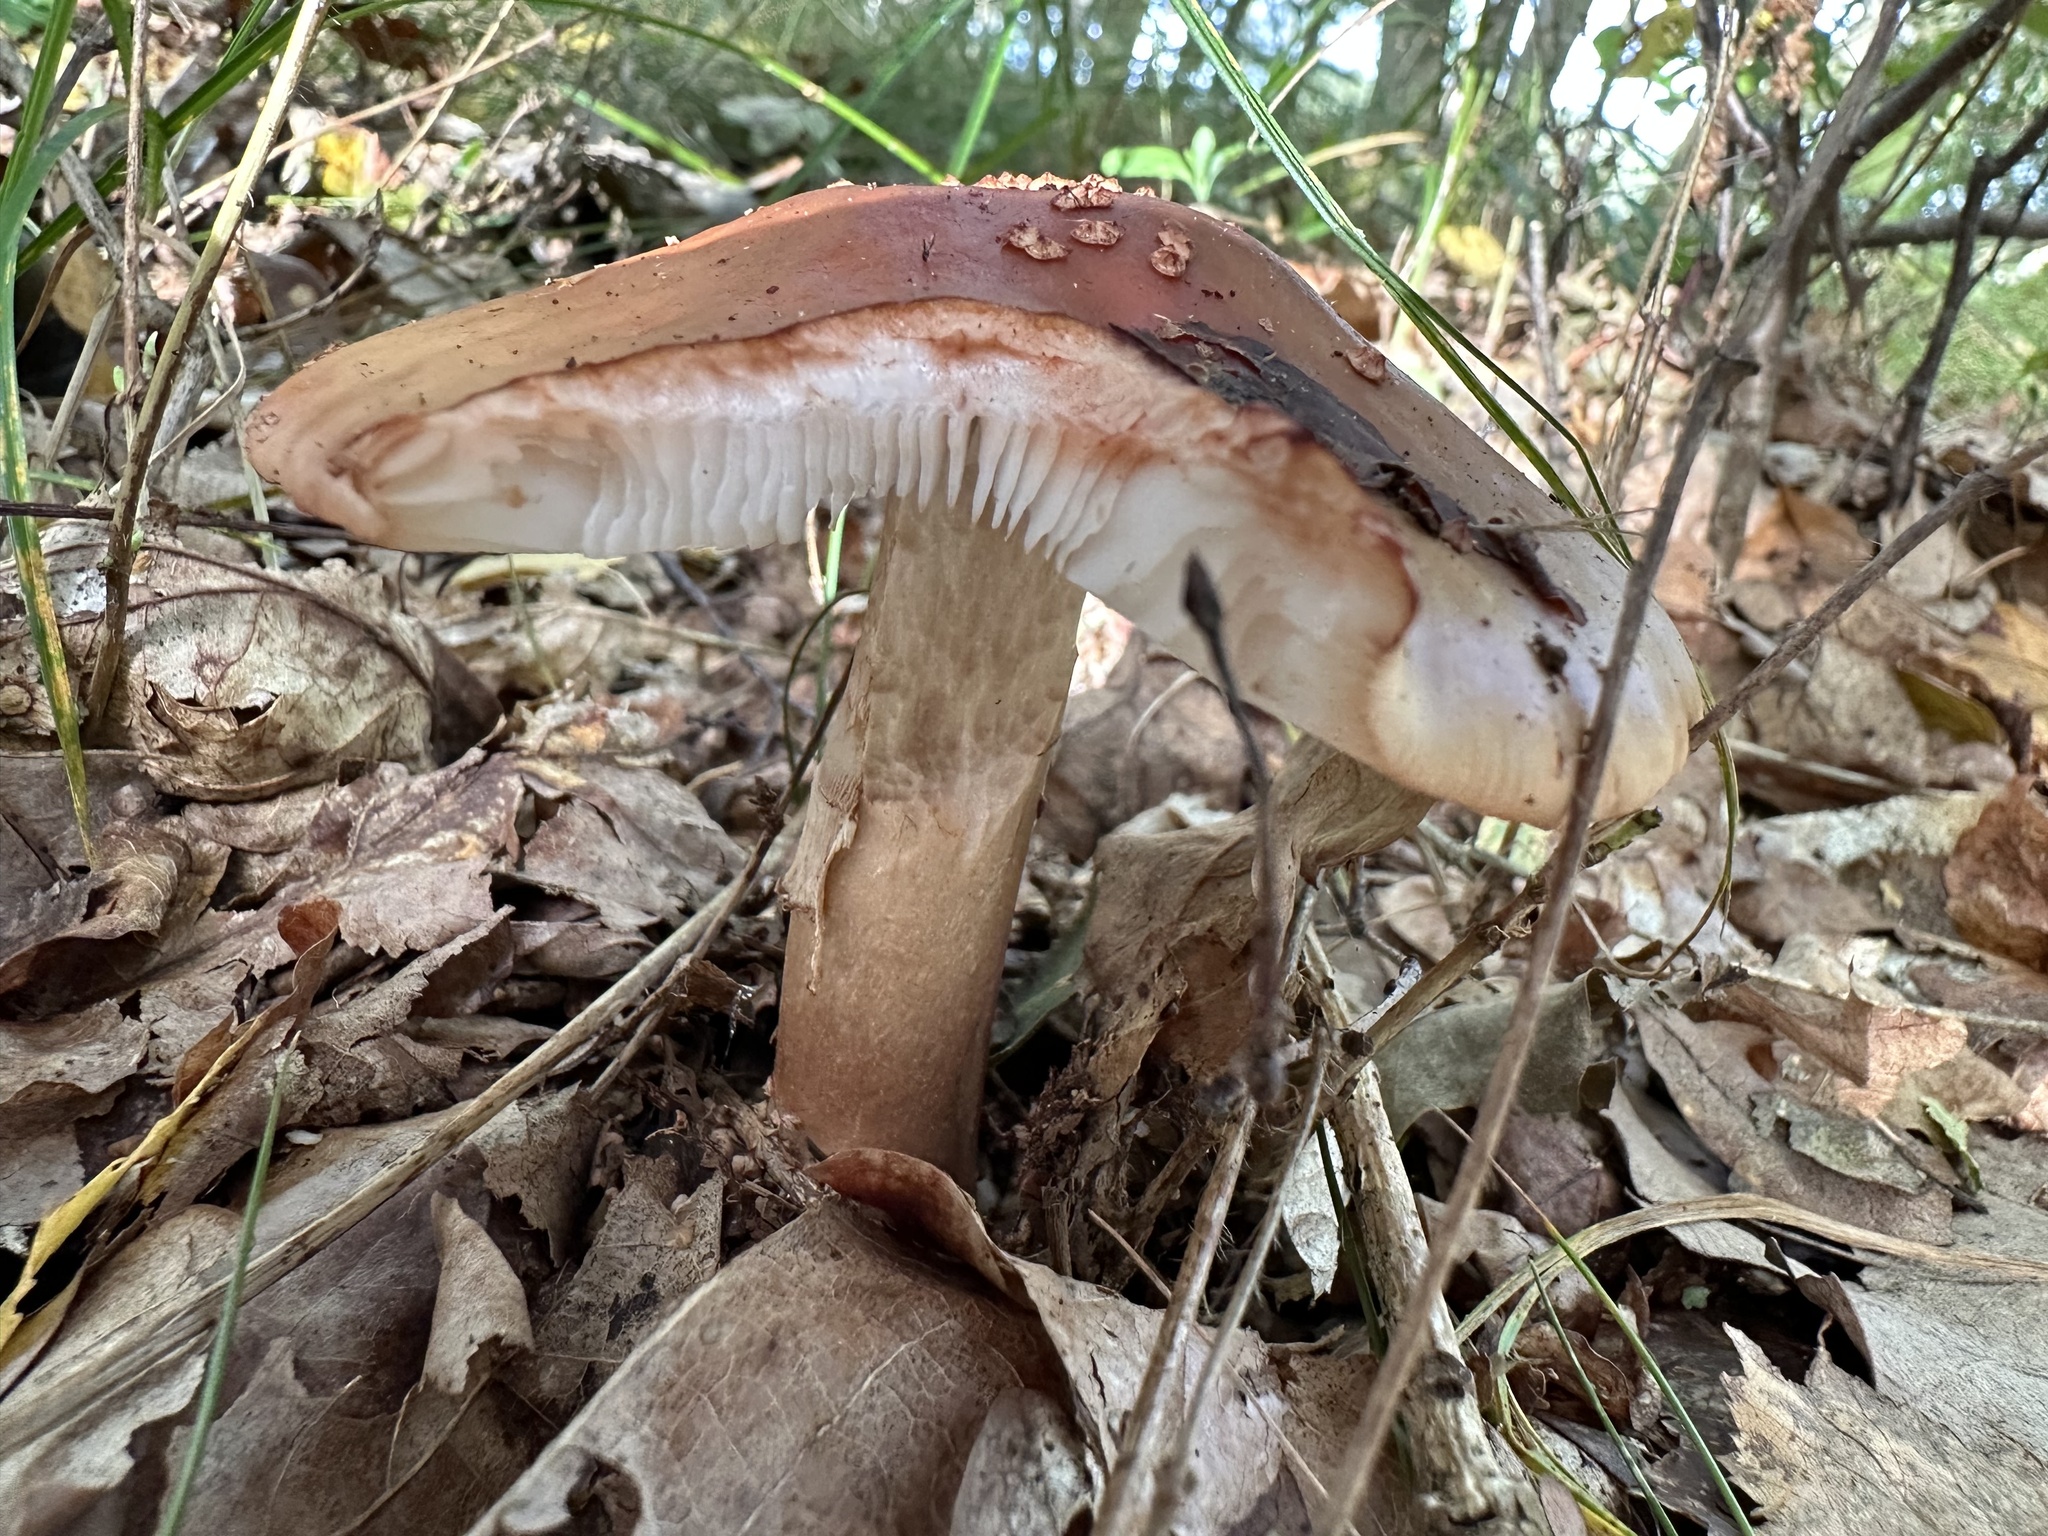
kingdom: Fungi
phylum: Basidiomycota
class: Agaricomycetes
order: Agaricales
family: Amanitaceae
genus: Amanita
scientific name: Amanita rubescens
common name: Blusher
